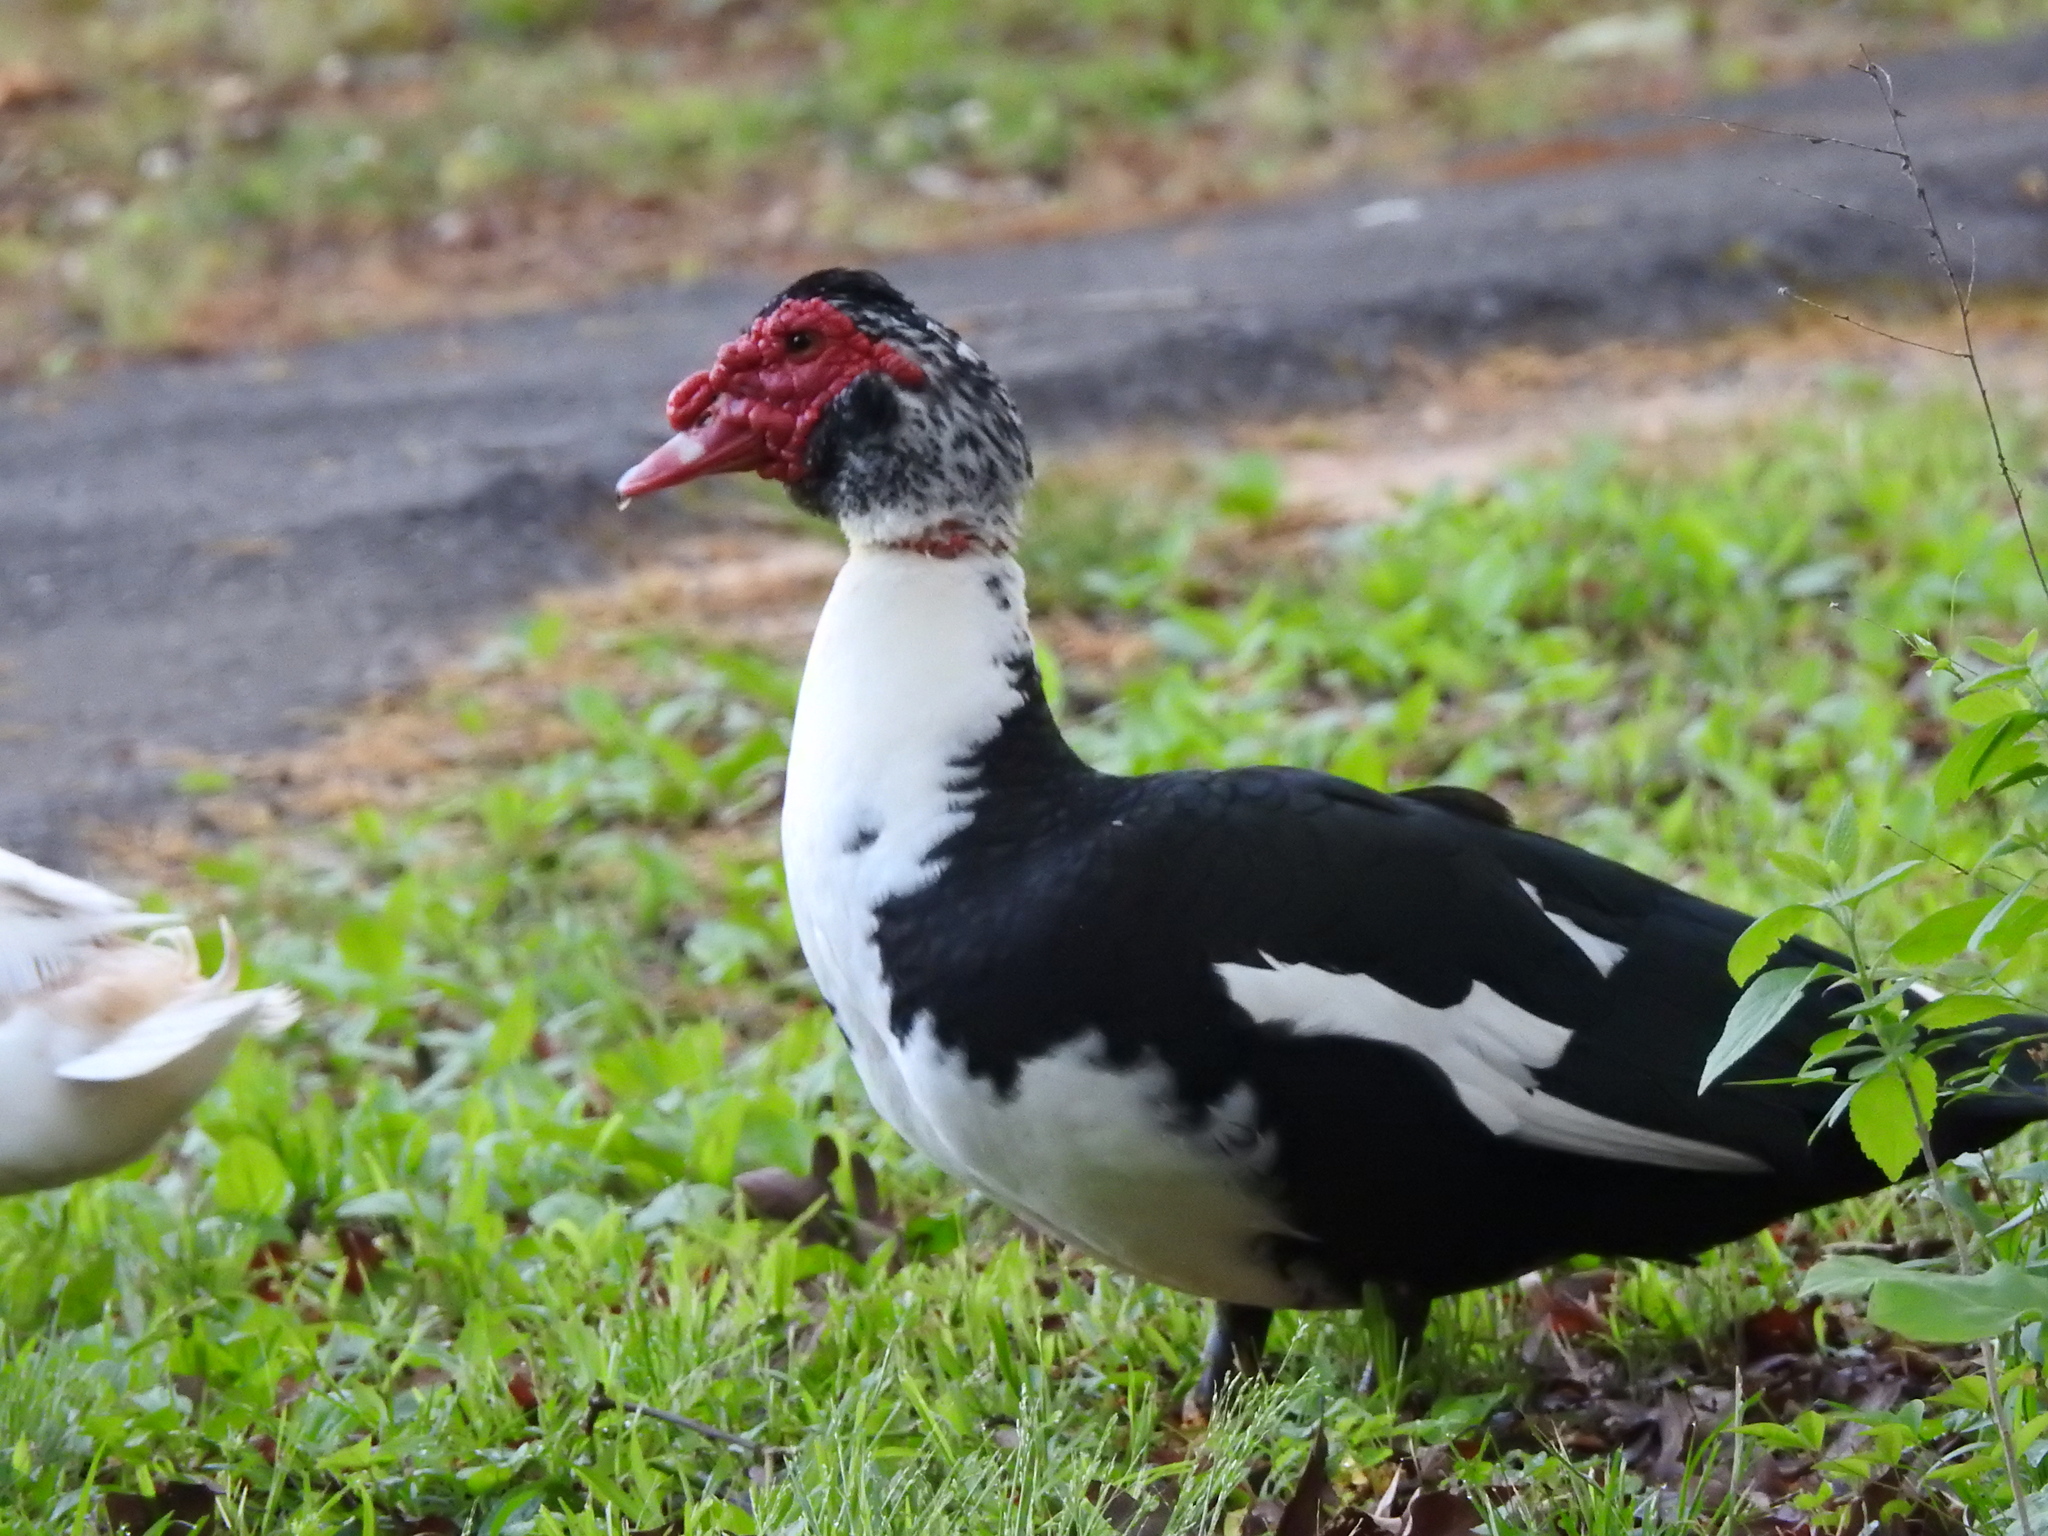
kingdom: Animalia
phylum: Chordata
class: Aves
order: Anseriformes
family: Anatidae
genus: Cairina
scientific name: Cairina moschata
